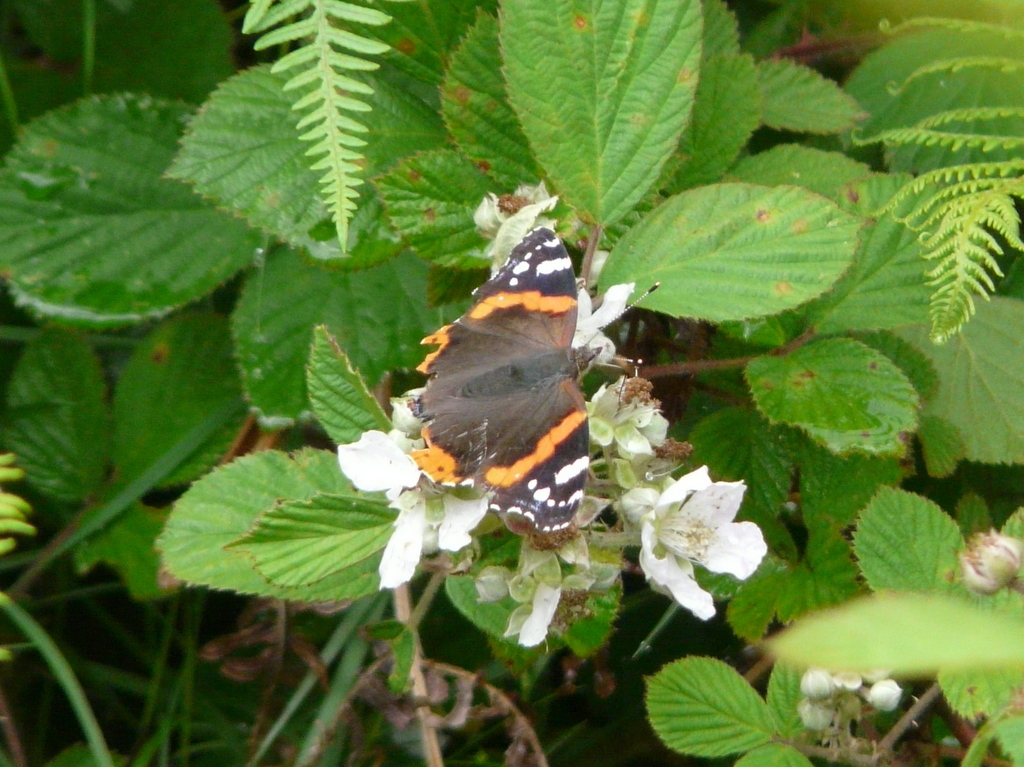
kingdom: Animalia
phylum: Arthropoda
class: Insecta
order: Lepidoptera
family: Nymphalidae
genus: Vanessa
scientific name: Vanessa atalanta
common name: Red admiral
